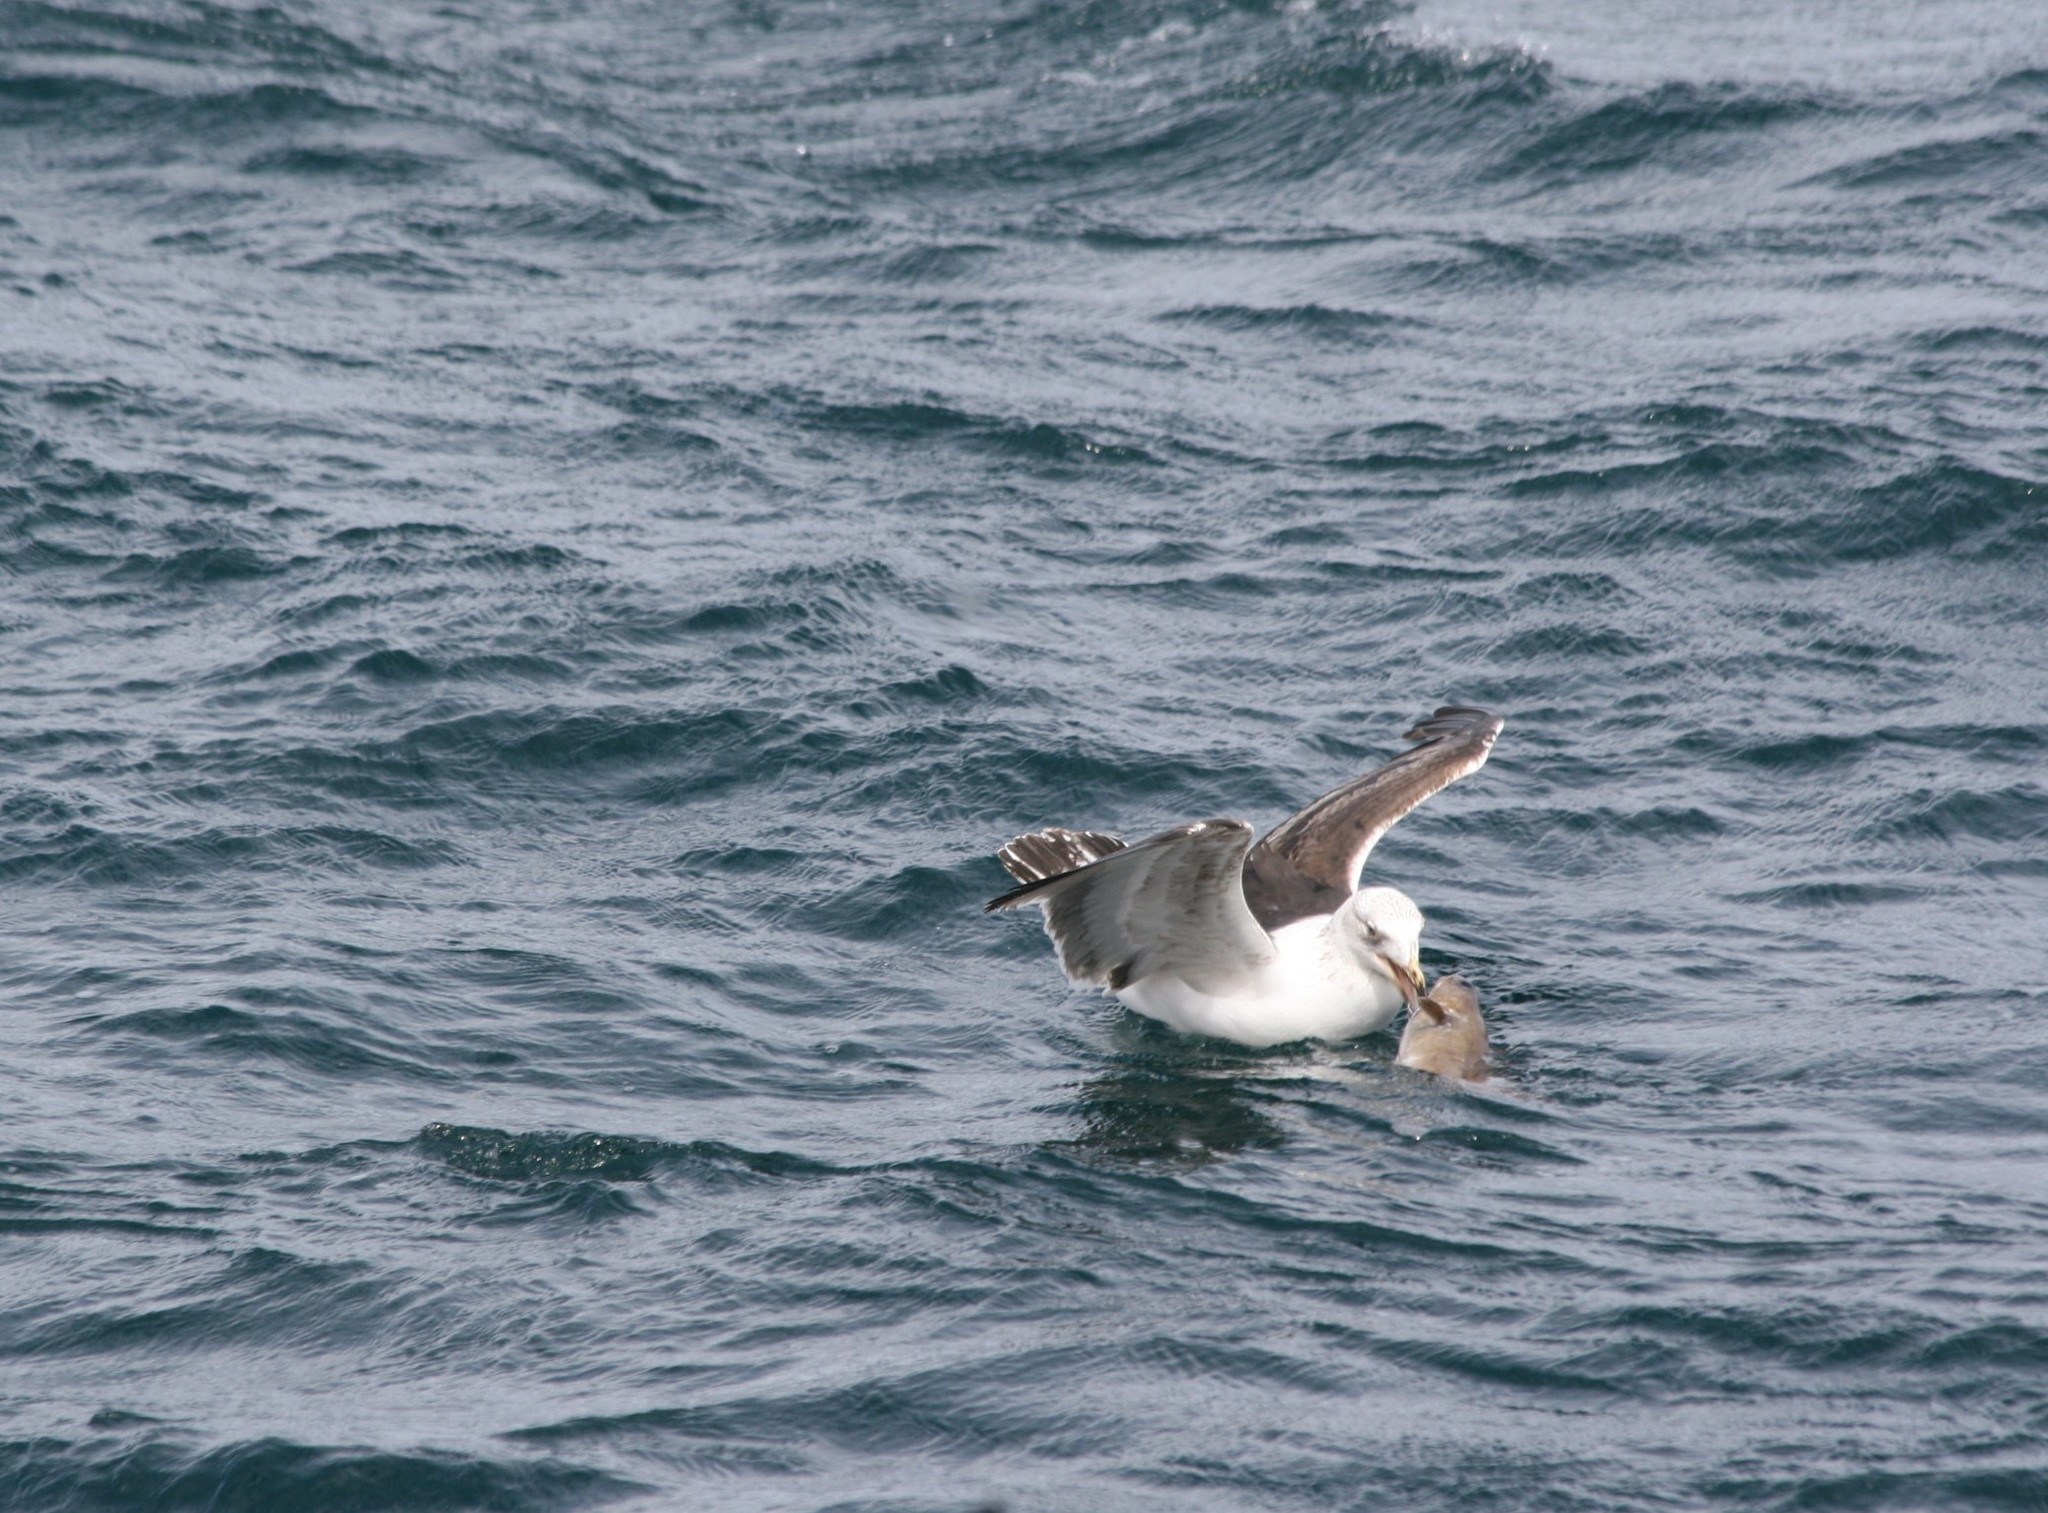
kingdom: Animalia
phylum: Chordata
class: Aves
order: Charadriiformes
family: Laridae
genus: Larus
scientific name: Larus dominicanus
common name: Kelp gull
